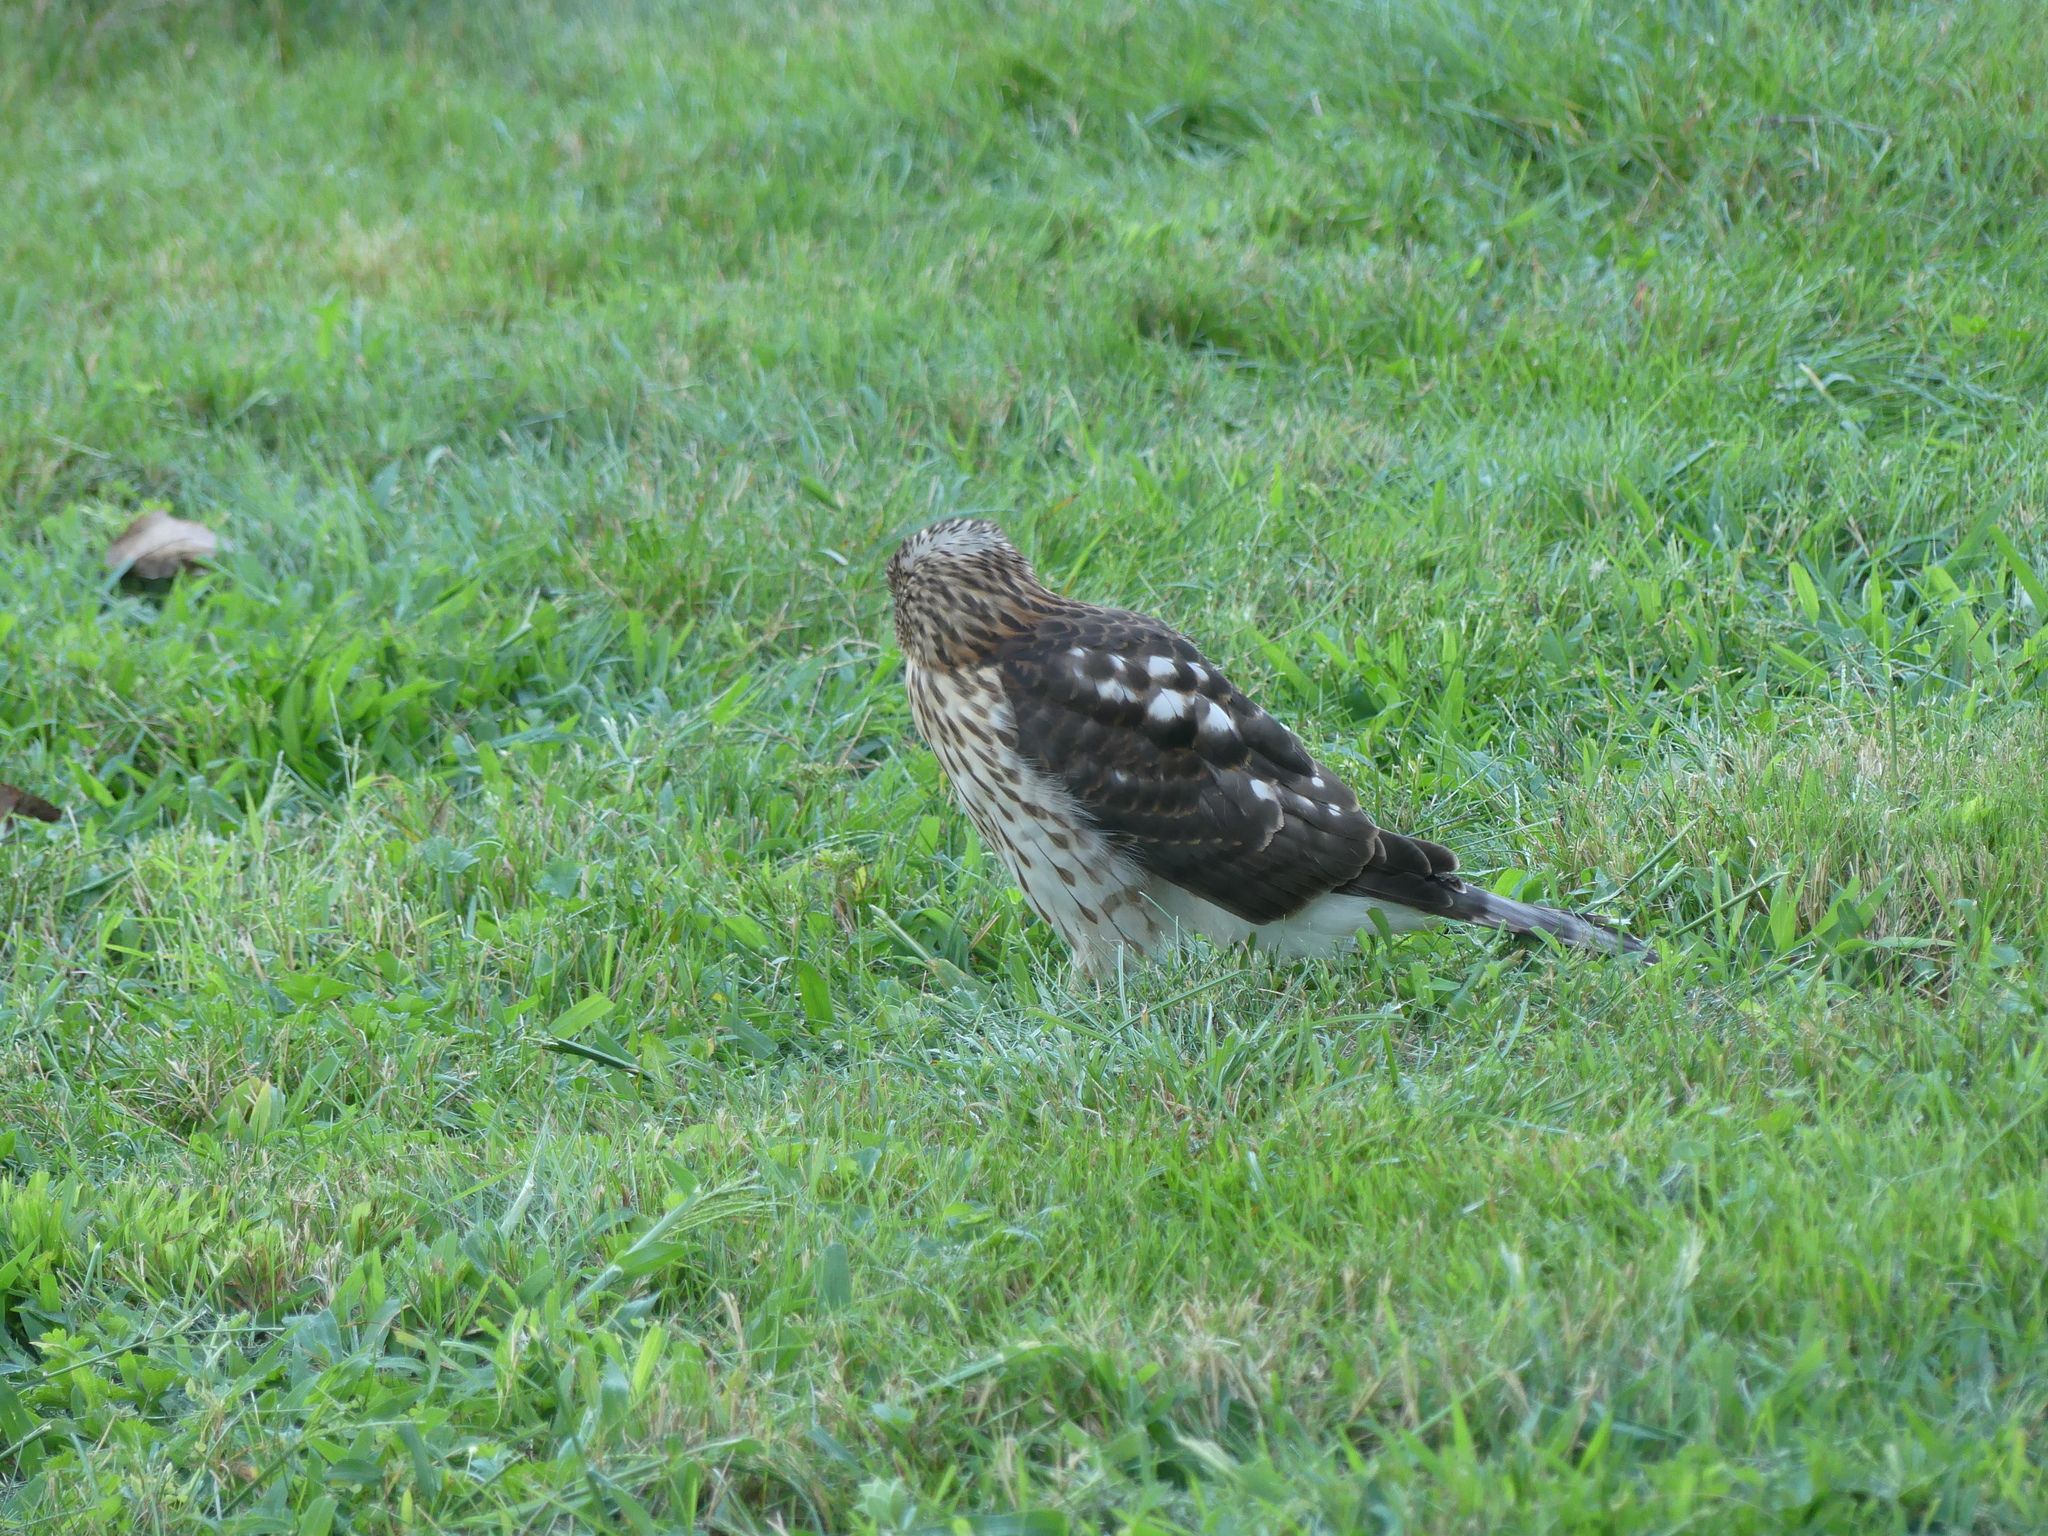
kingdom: Animalia
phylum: Chordata
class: Aves
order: Accipitriformes
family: Accipitridae
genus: Accipiter
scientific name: Accipiter cooperii
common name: Cooper's hawk
